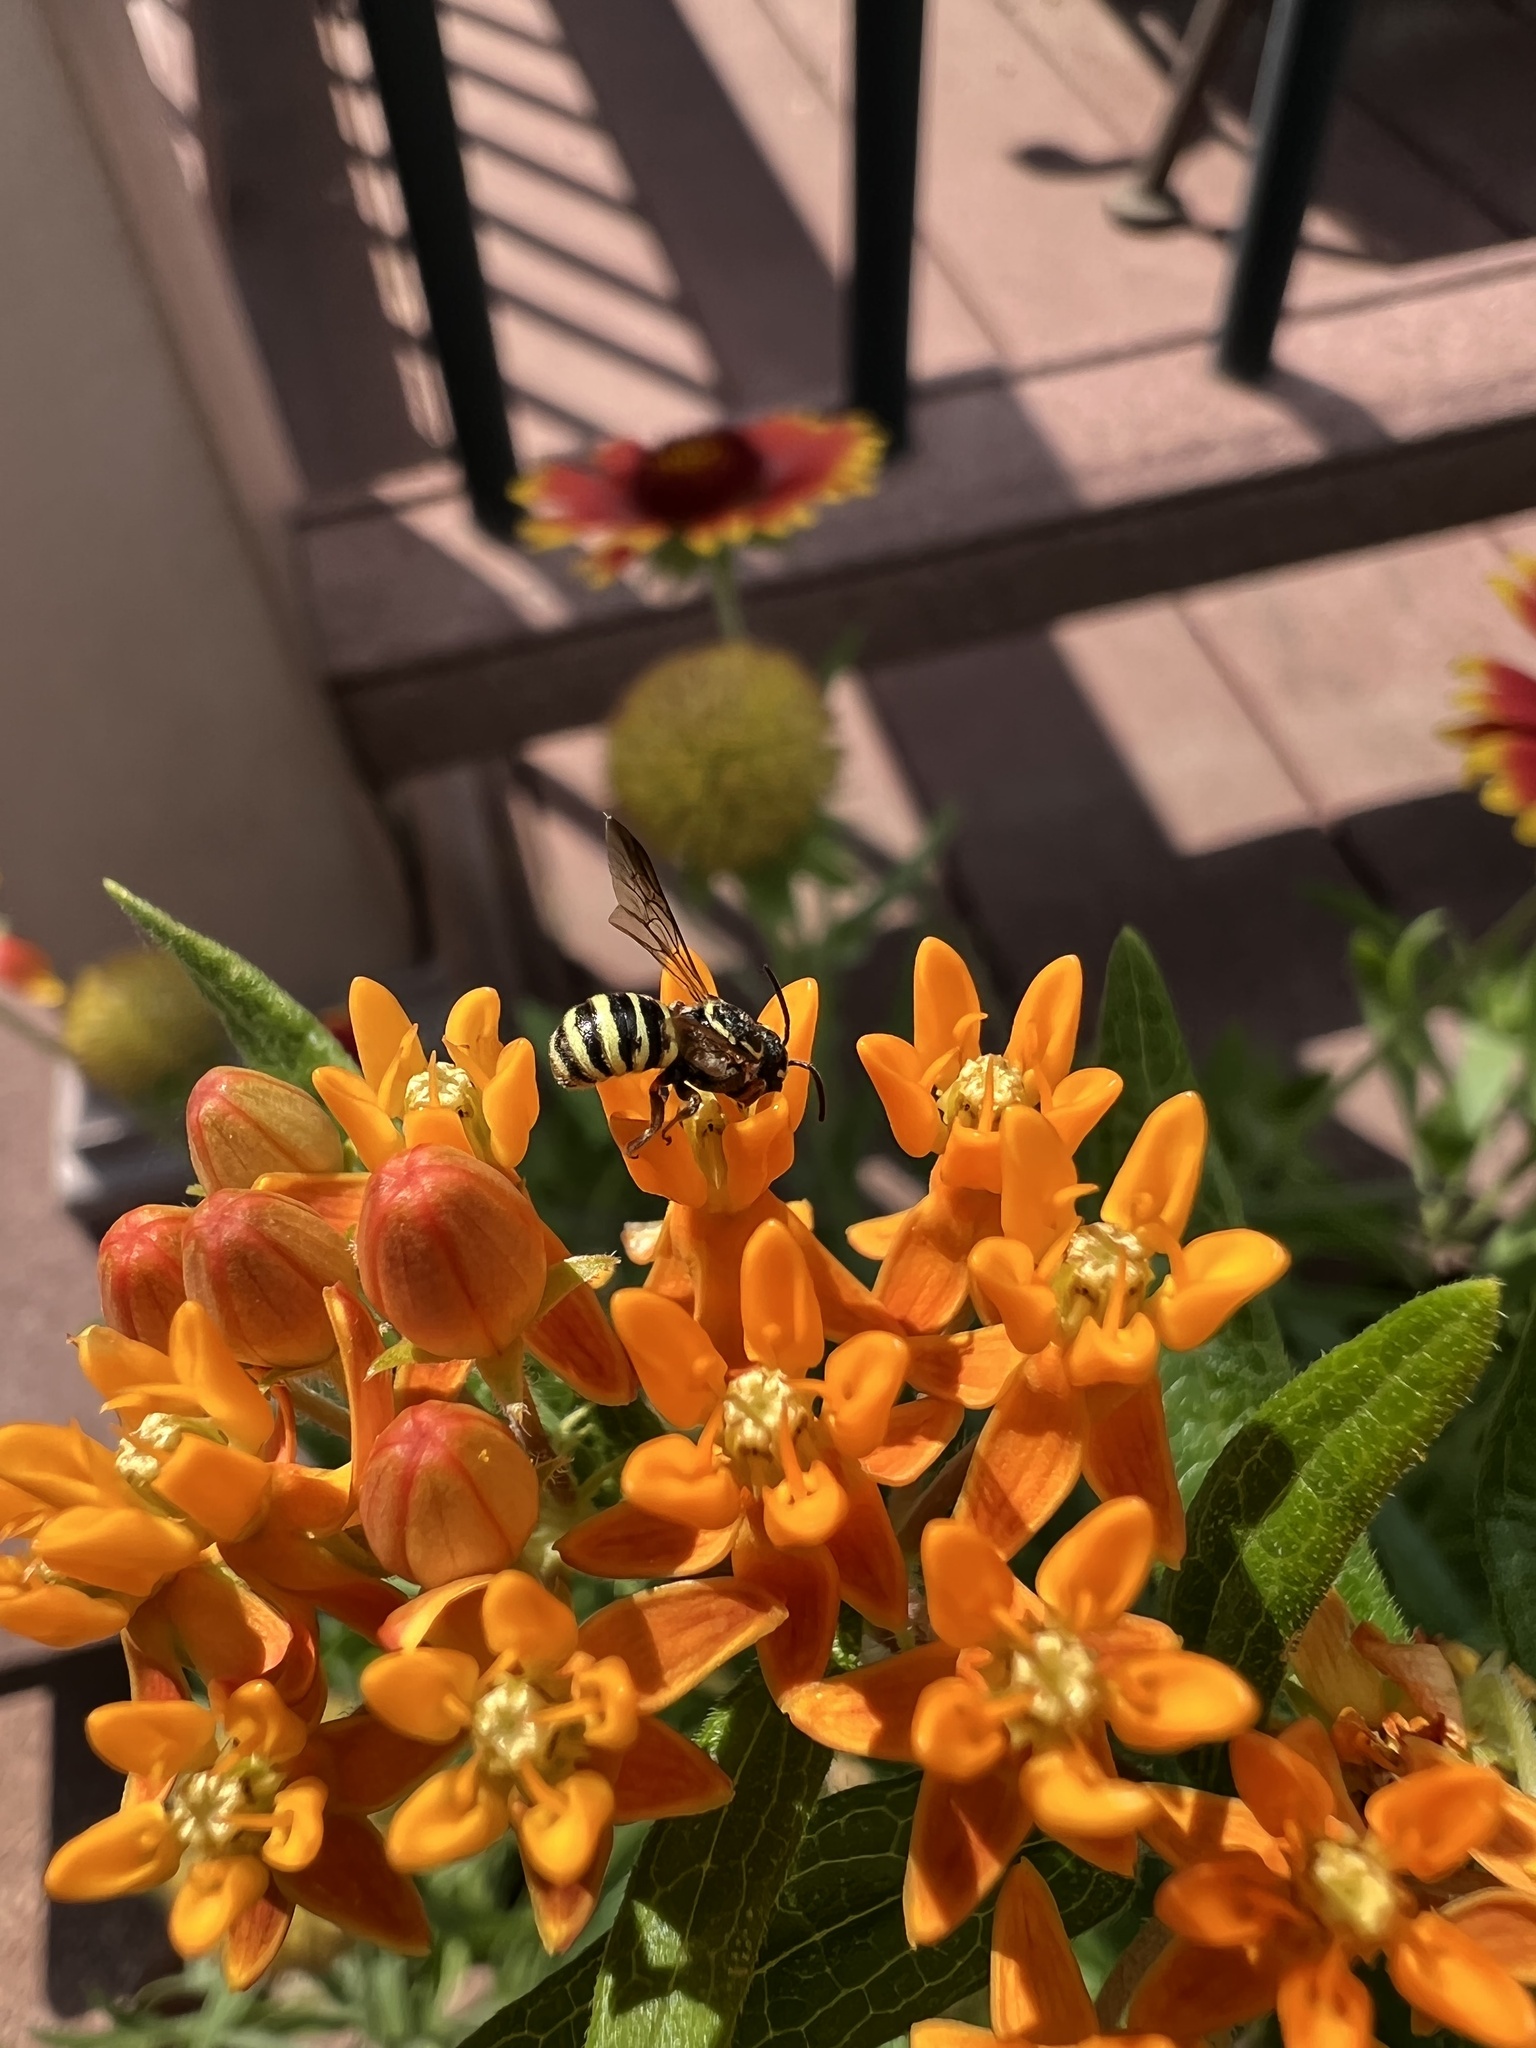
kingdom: Animalia
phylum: Arthropoda
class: Insecta
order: Hymenoptera
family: Megachilidae
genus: Stelis
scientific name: Stelis rudbeckiarum
